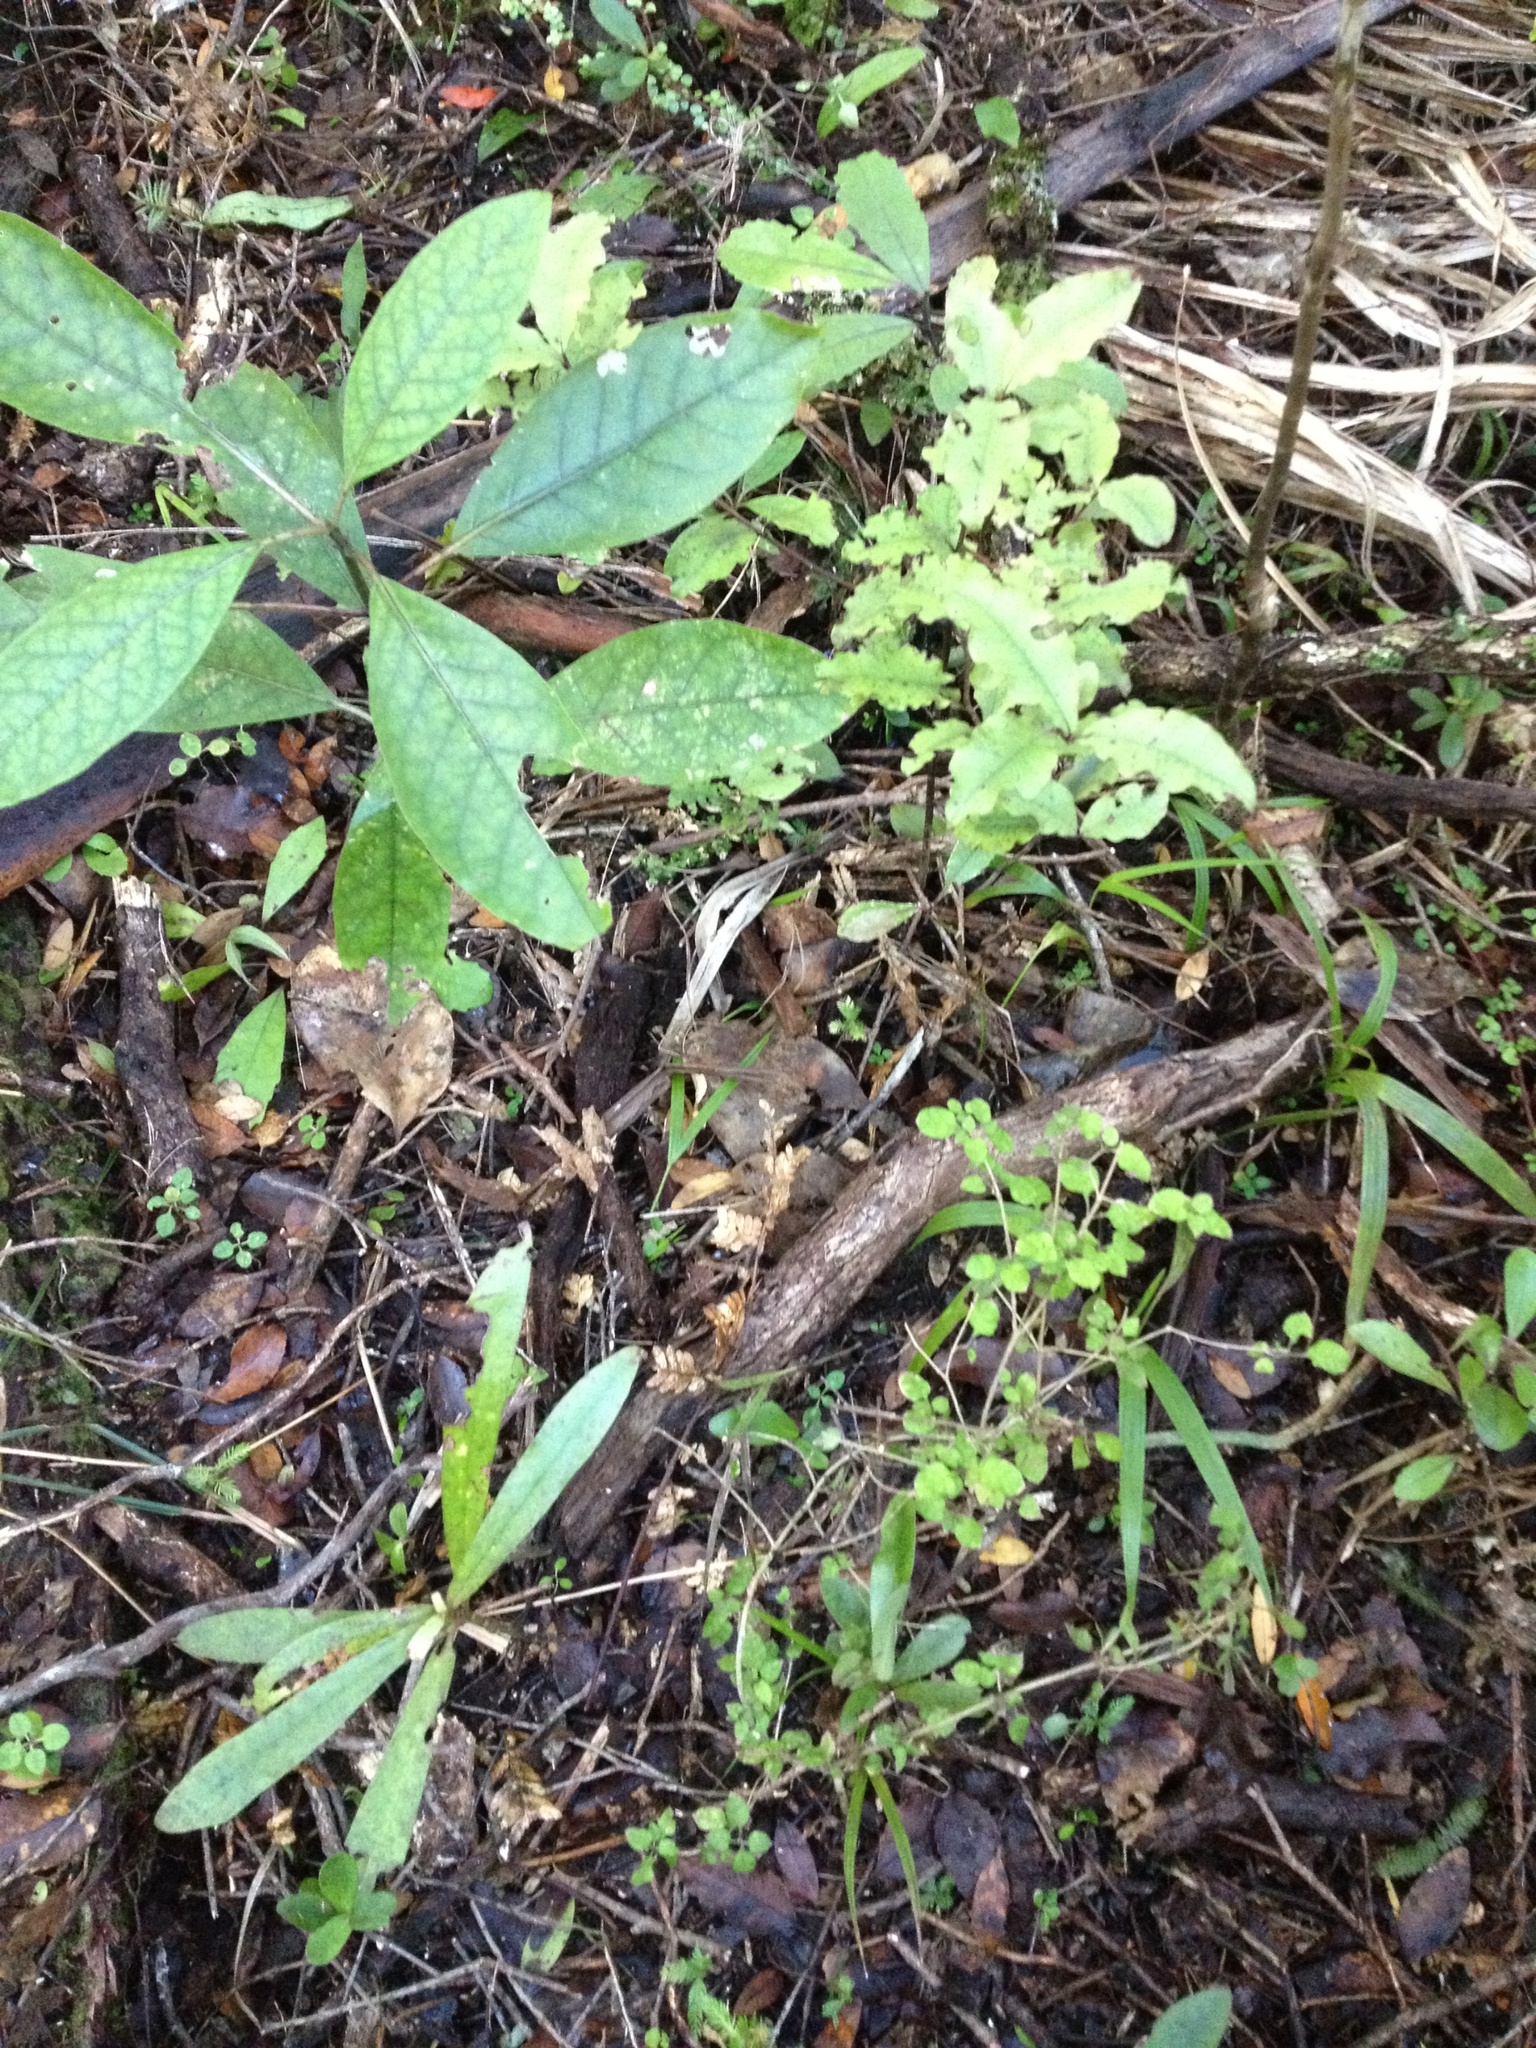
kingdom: Plantae
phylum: Tracheophyta
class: Magnoliopsida
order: Ericales
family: Primulaceae
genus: Myrsine
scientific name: Myrsine salicina
